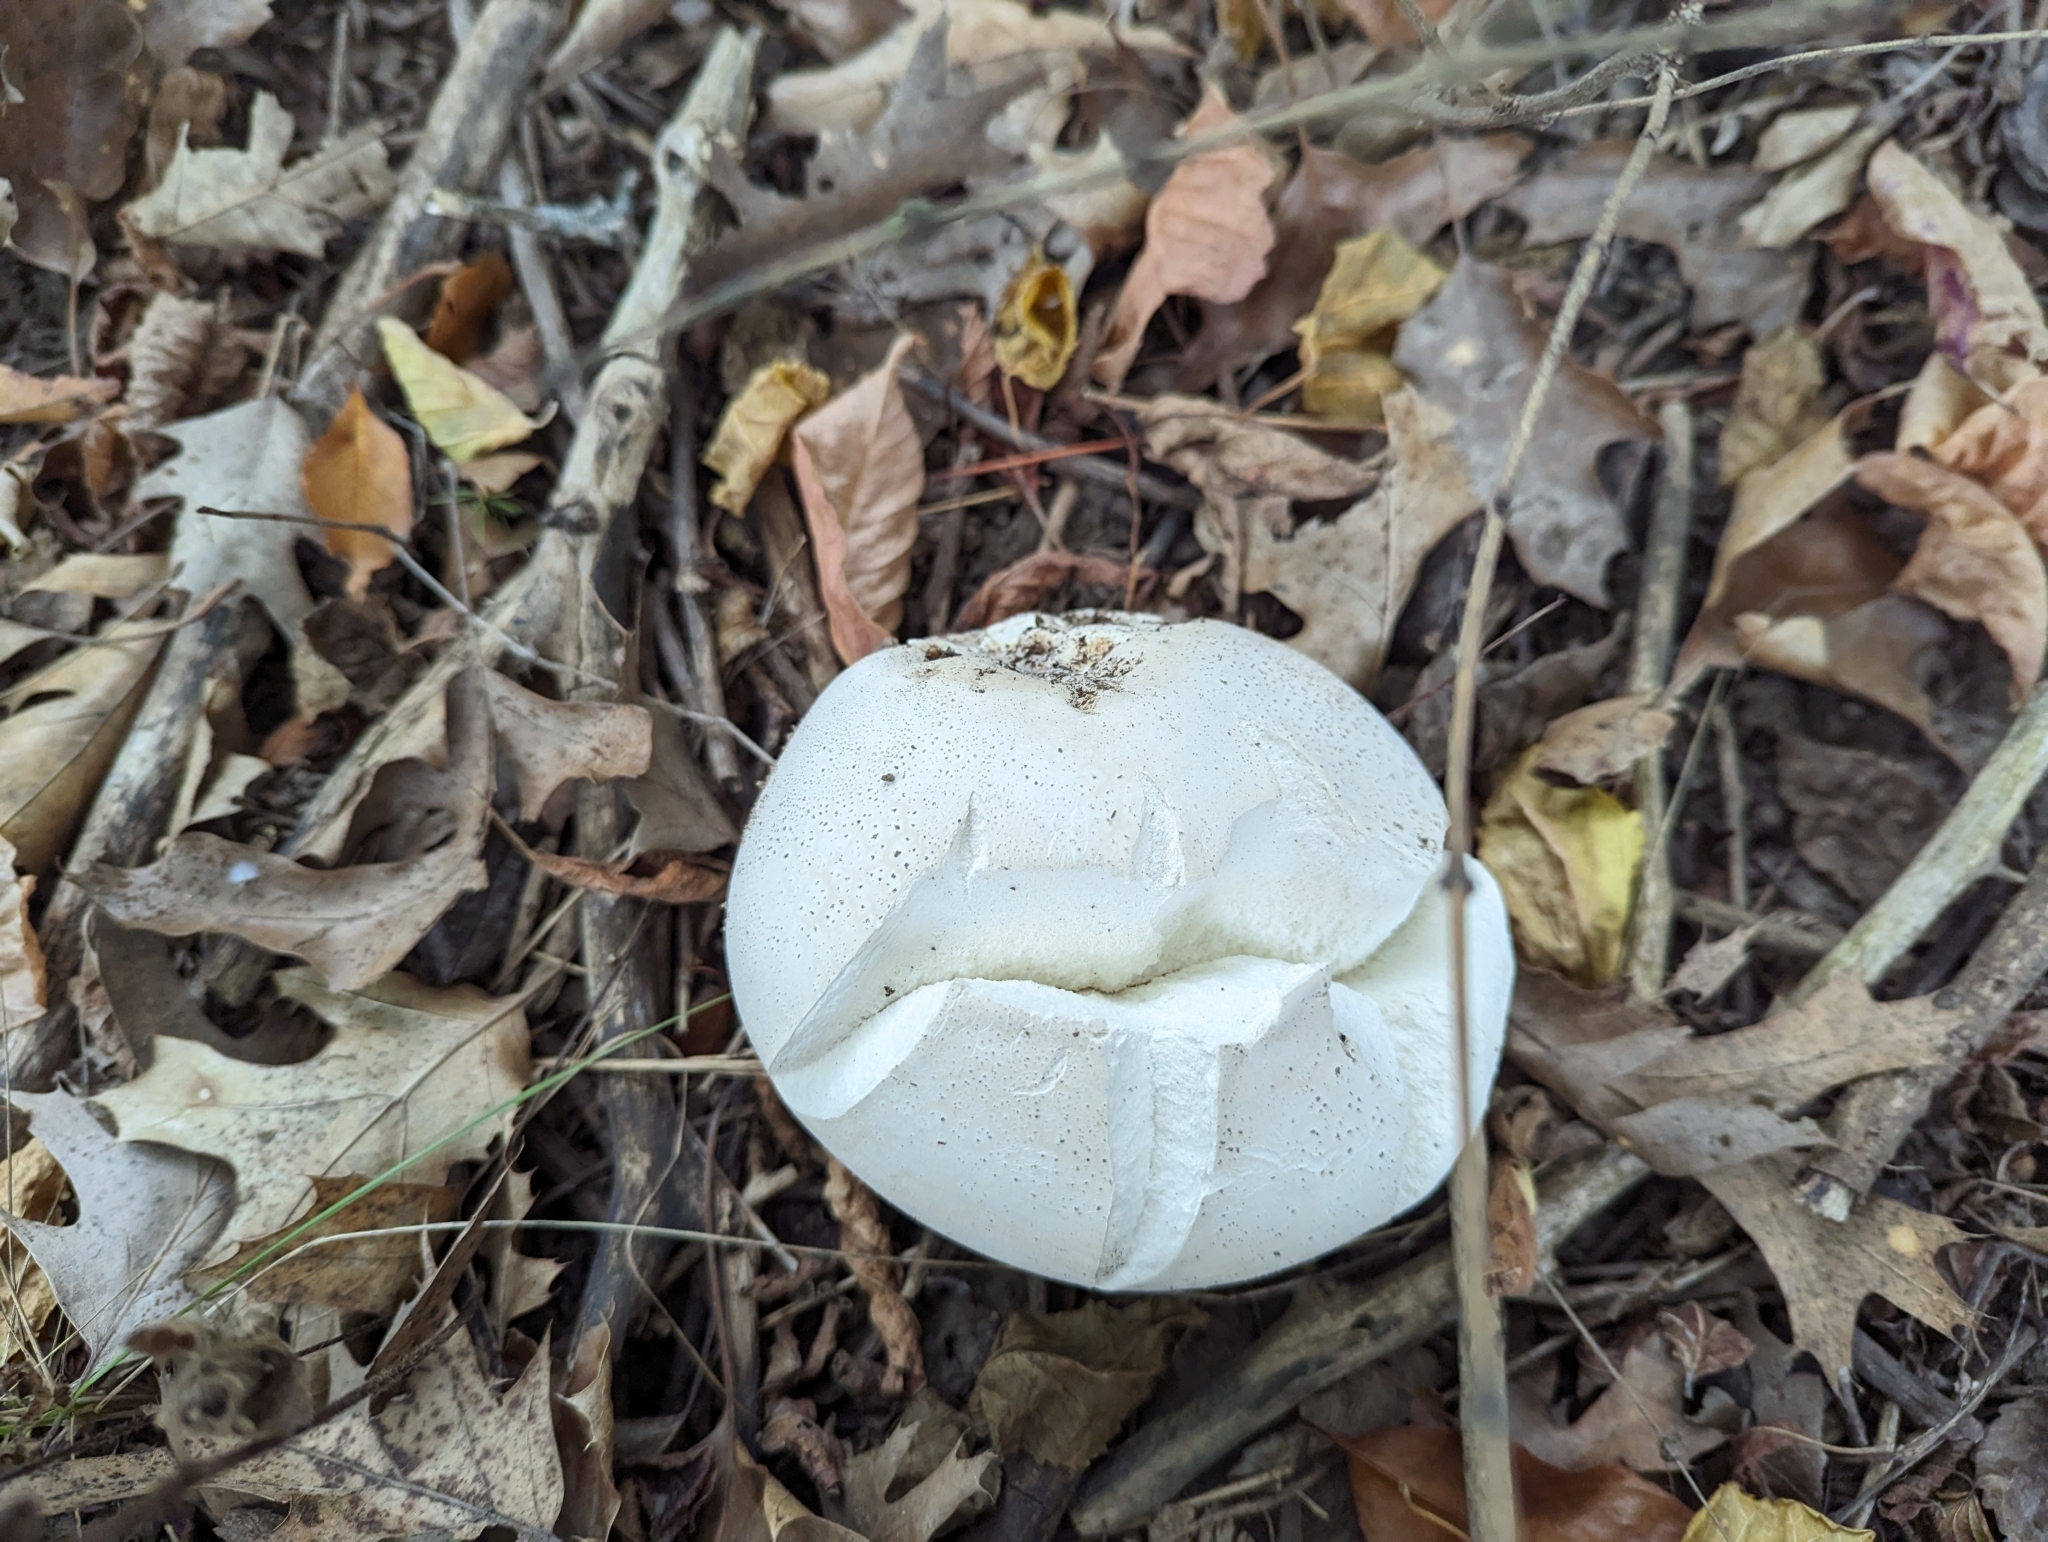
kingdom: Fungi
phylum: Basidiomycota
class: Agaricomycetes
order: Agaricales
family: Lycoperdaceae
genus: Calvatia
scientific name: Calvatia gigantea
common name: Giant puffball
